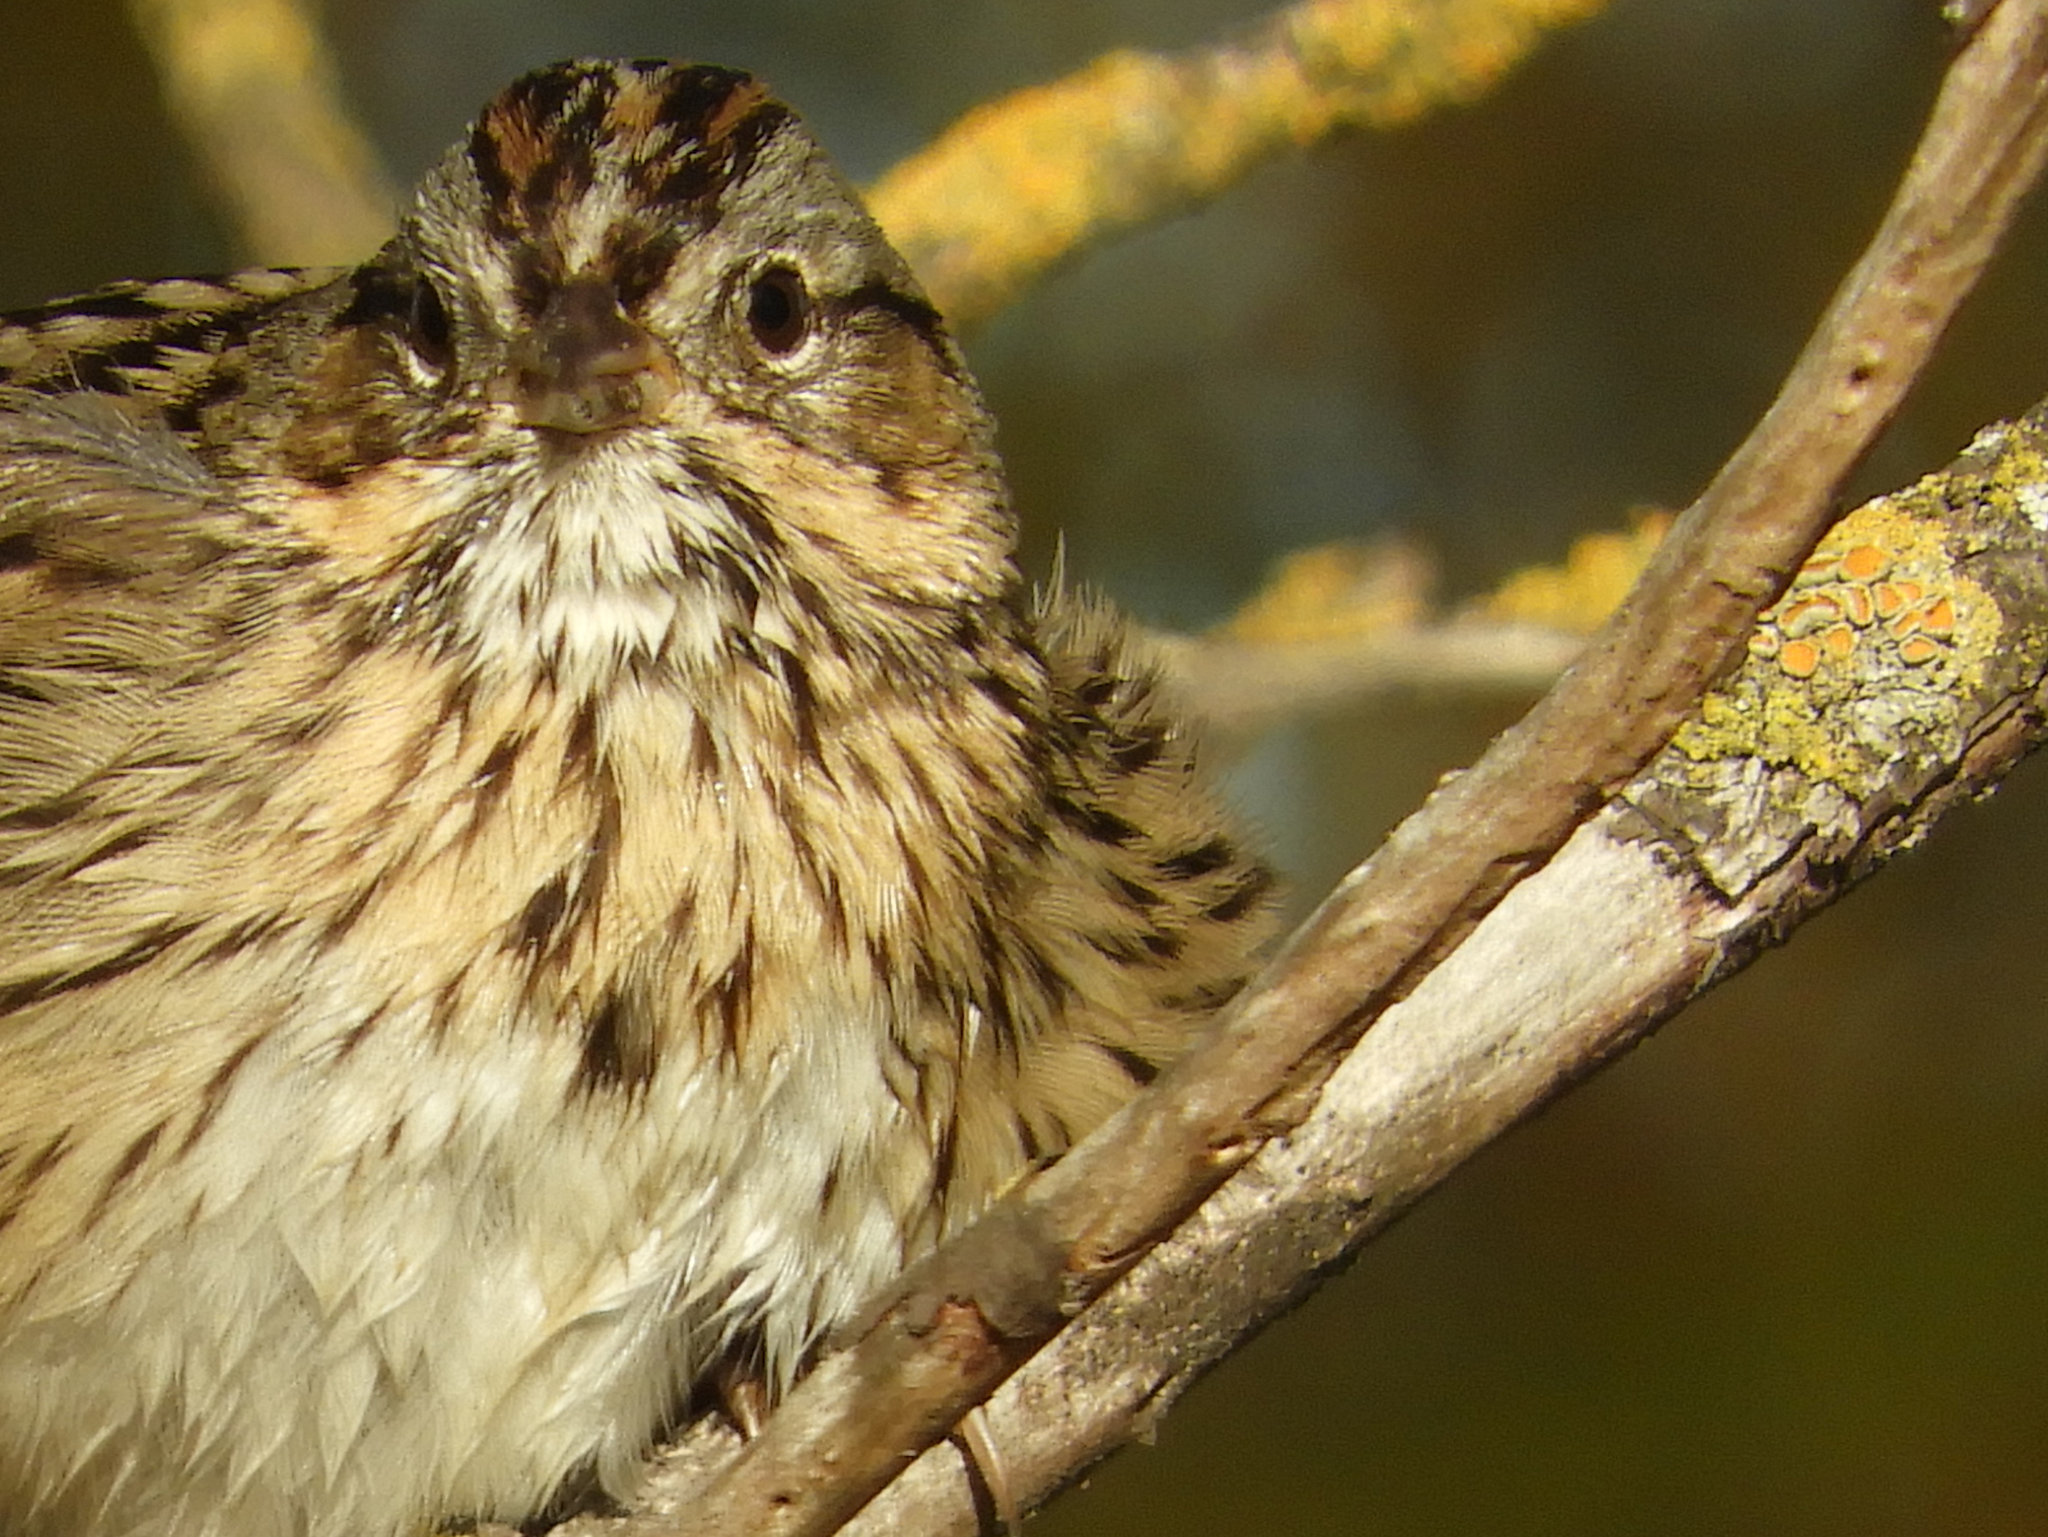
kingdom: Animalia
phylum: Chordata
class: Aves
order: Passeriformes
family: Passerellidae
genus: Melospiza
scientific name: Melospiza lincolnii
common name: Lincoln's sparrow
